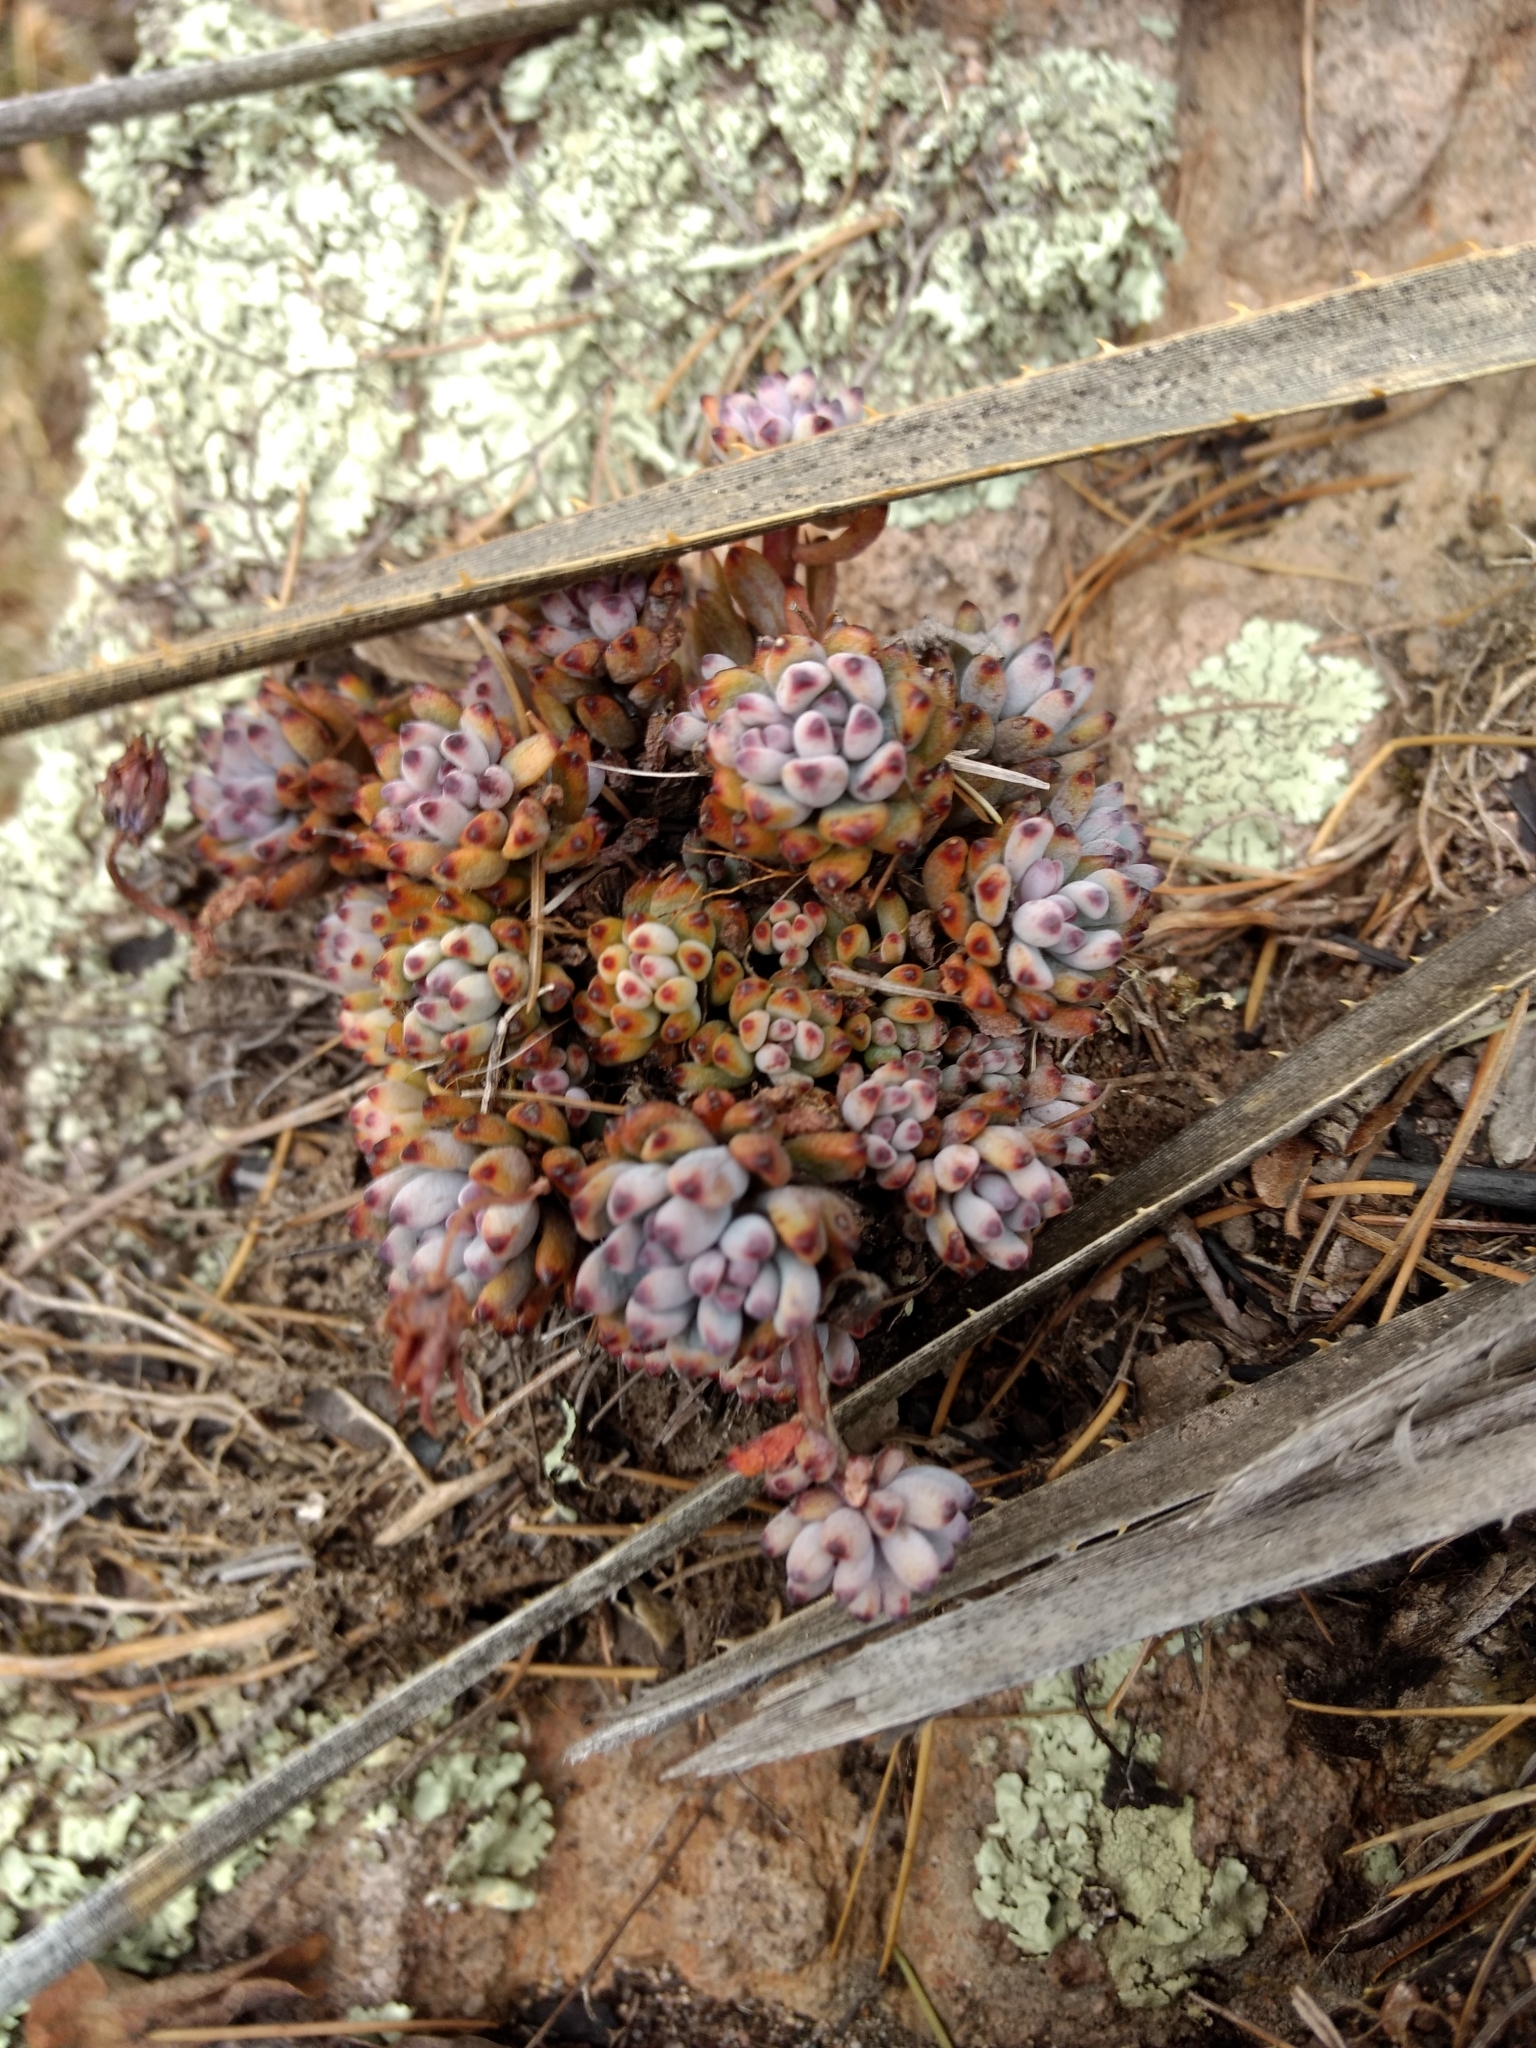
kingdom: Plantae
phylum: Tracheophyta
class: Magnoliopsida
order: Saxifragales
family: Crassulaceae
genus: Graptopetalum
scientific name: Graptopetalum pachyphyllum
